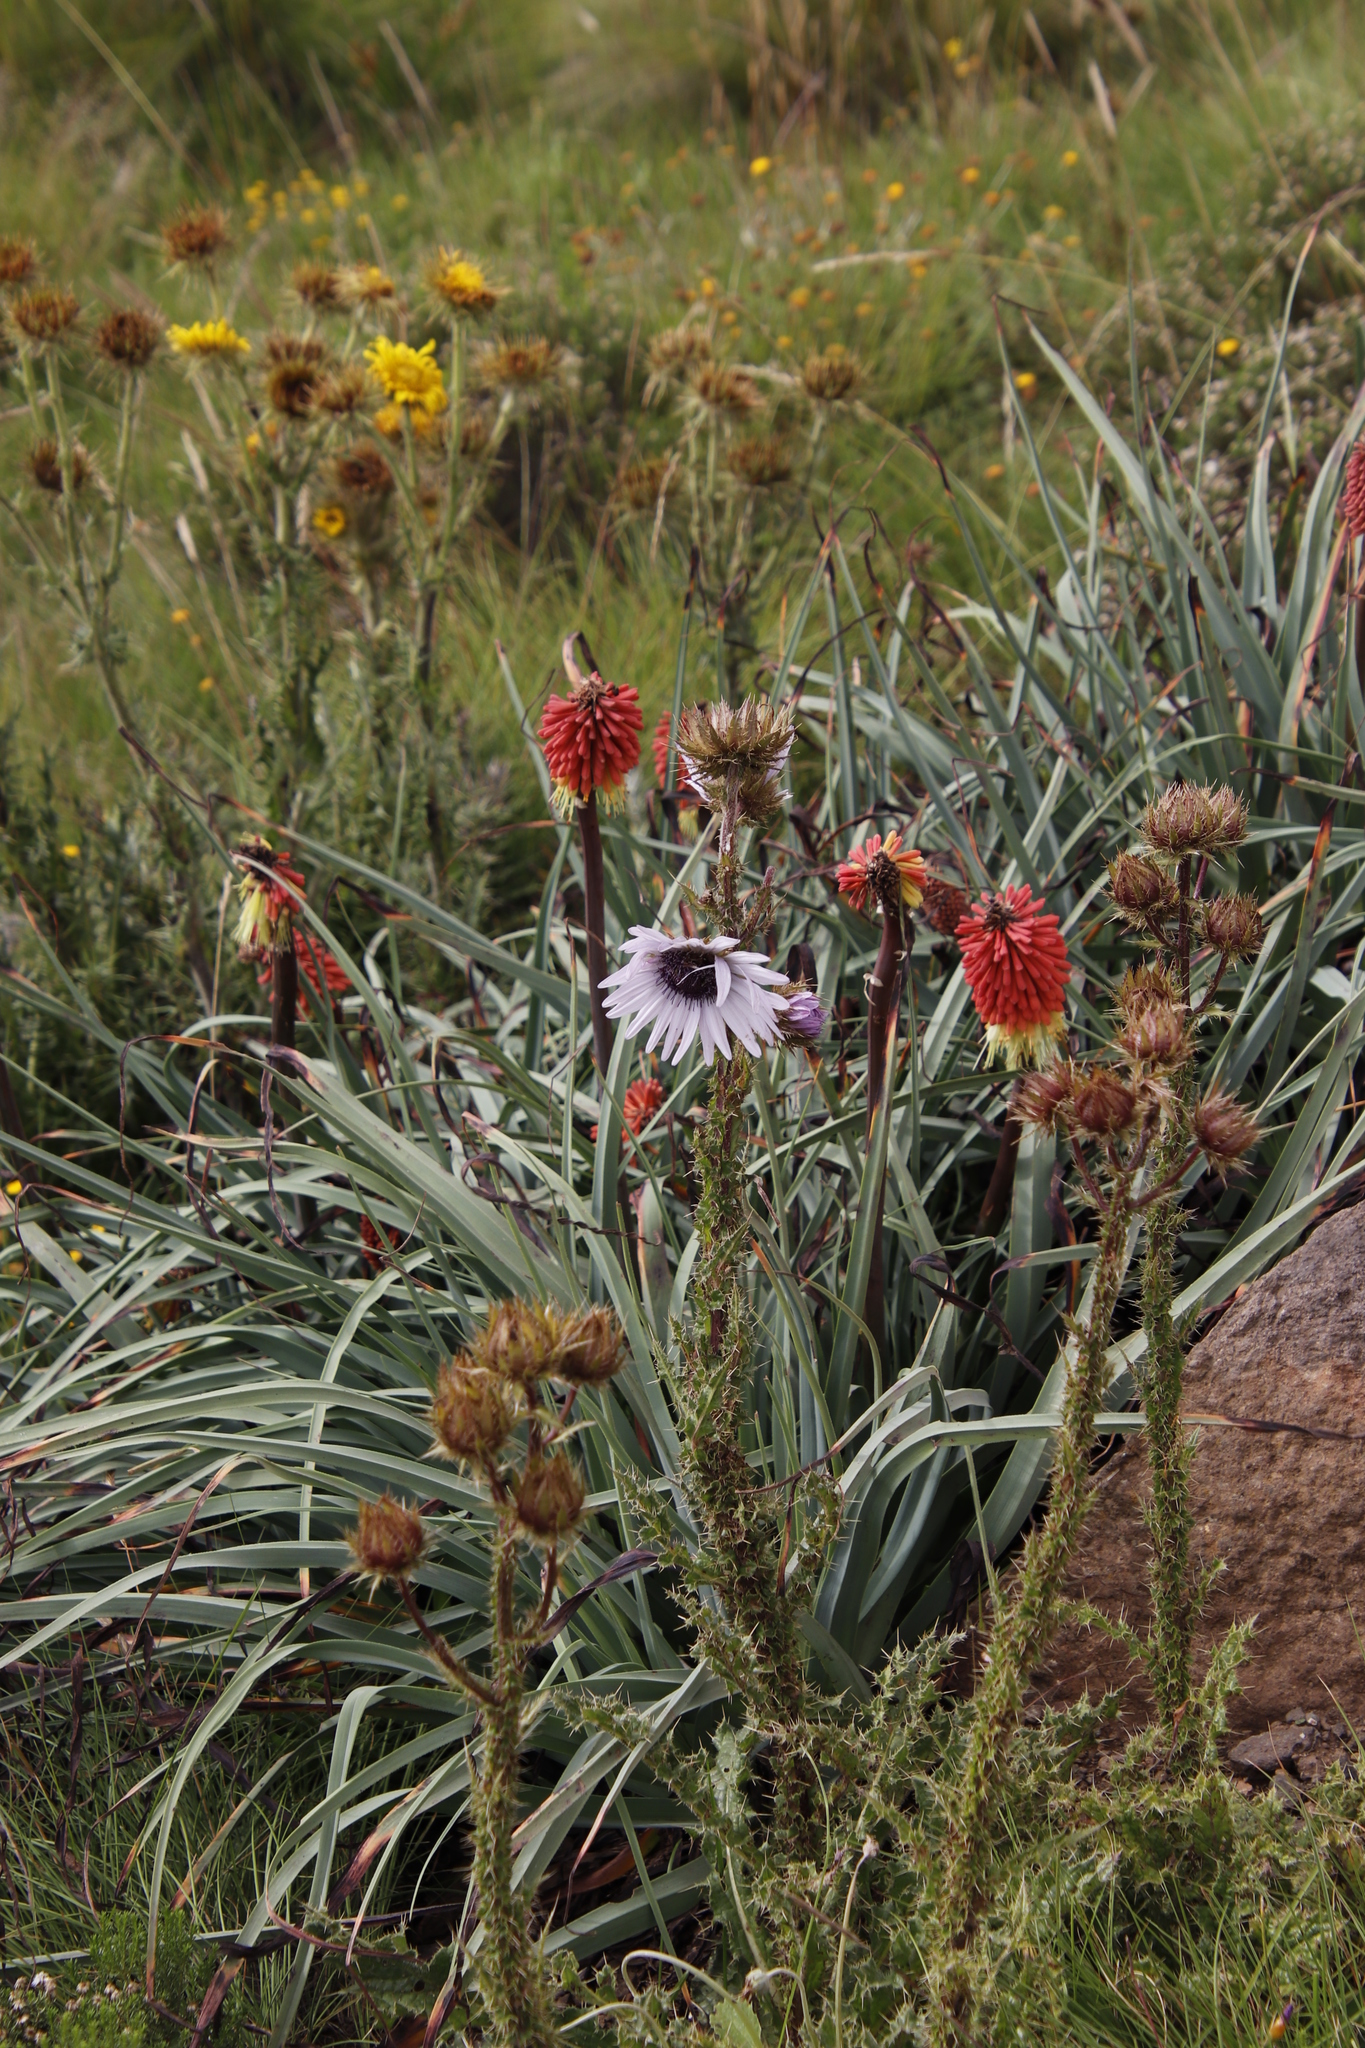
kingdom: Plantae
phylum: Tracheophyta
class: Magnoliopsida
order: Asterales
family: Asteraceae
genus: Berkheya
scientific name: Berkheya purpurea
